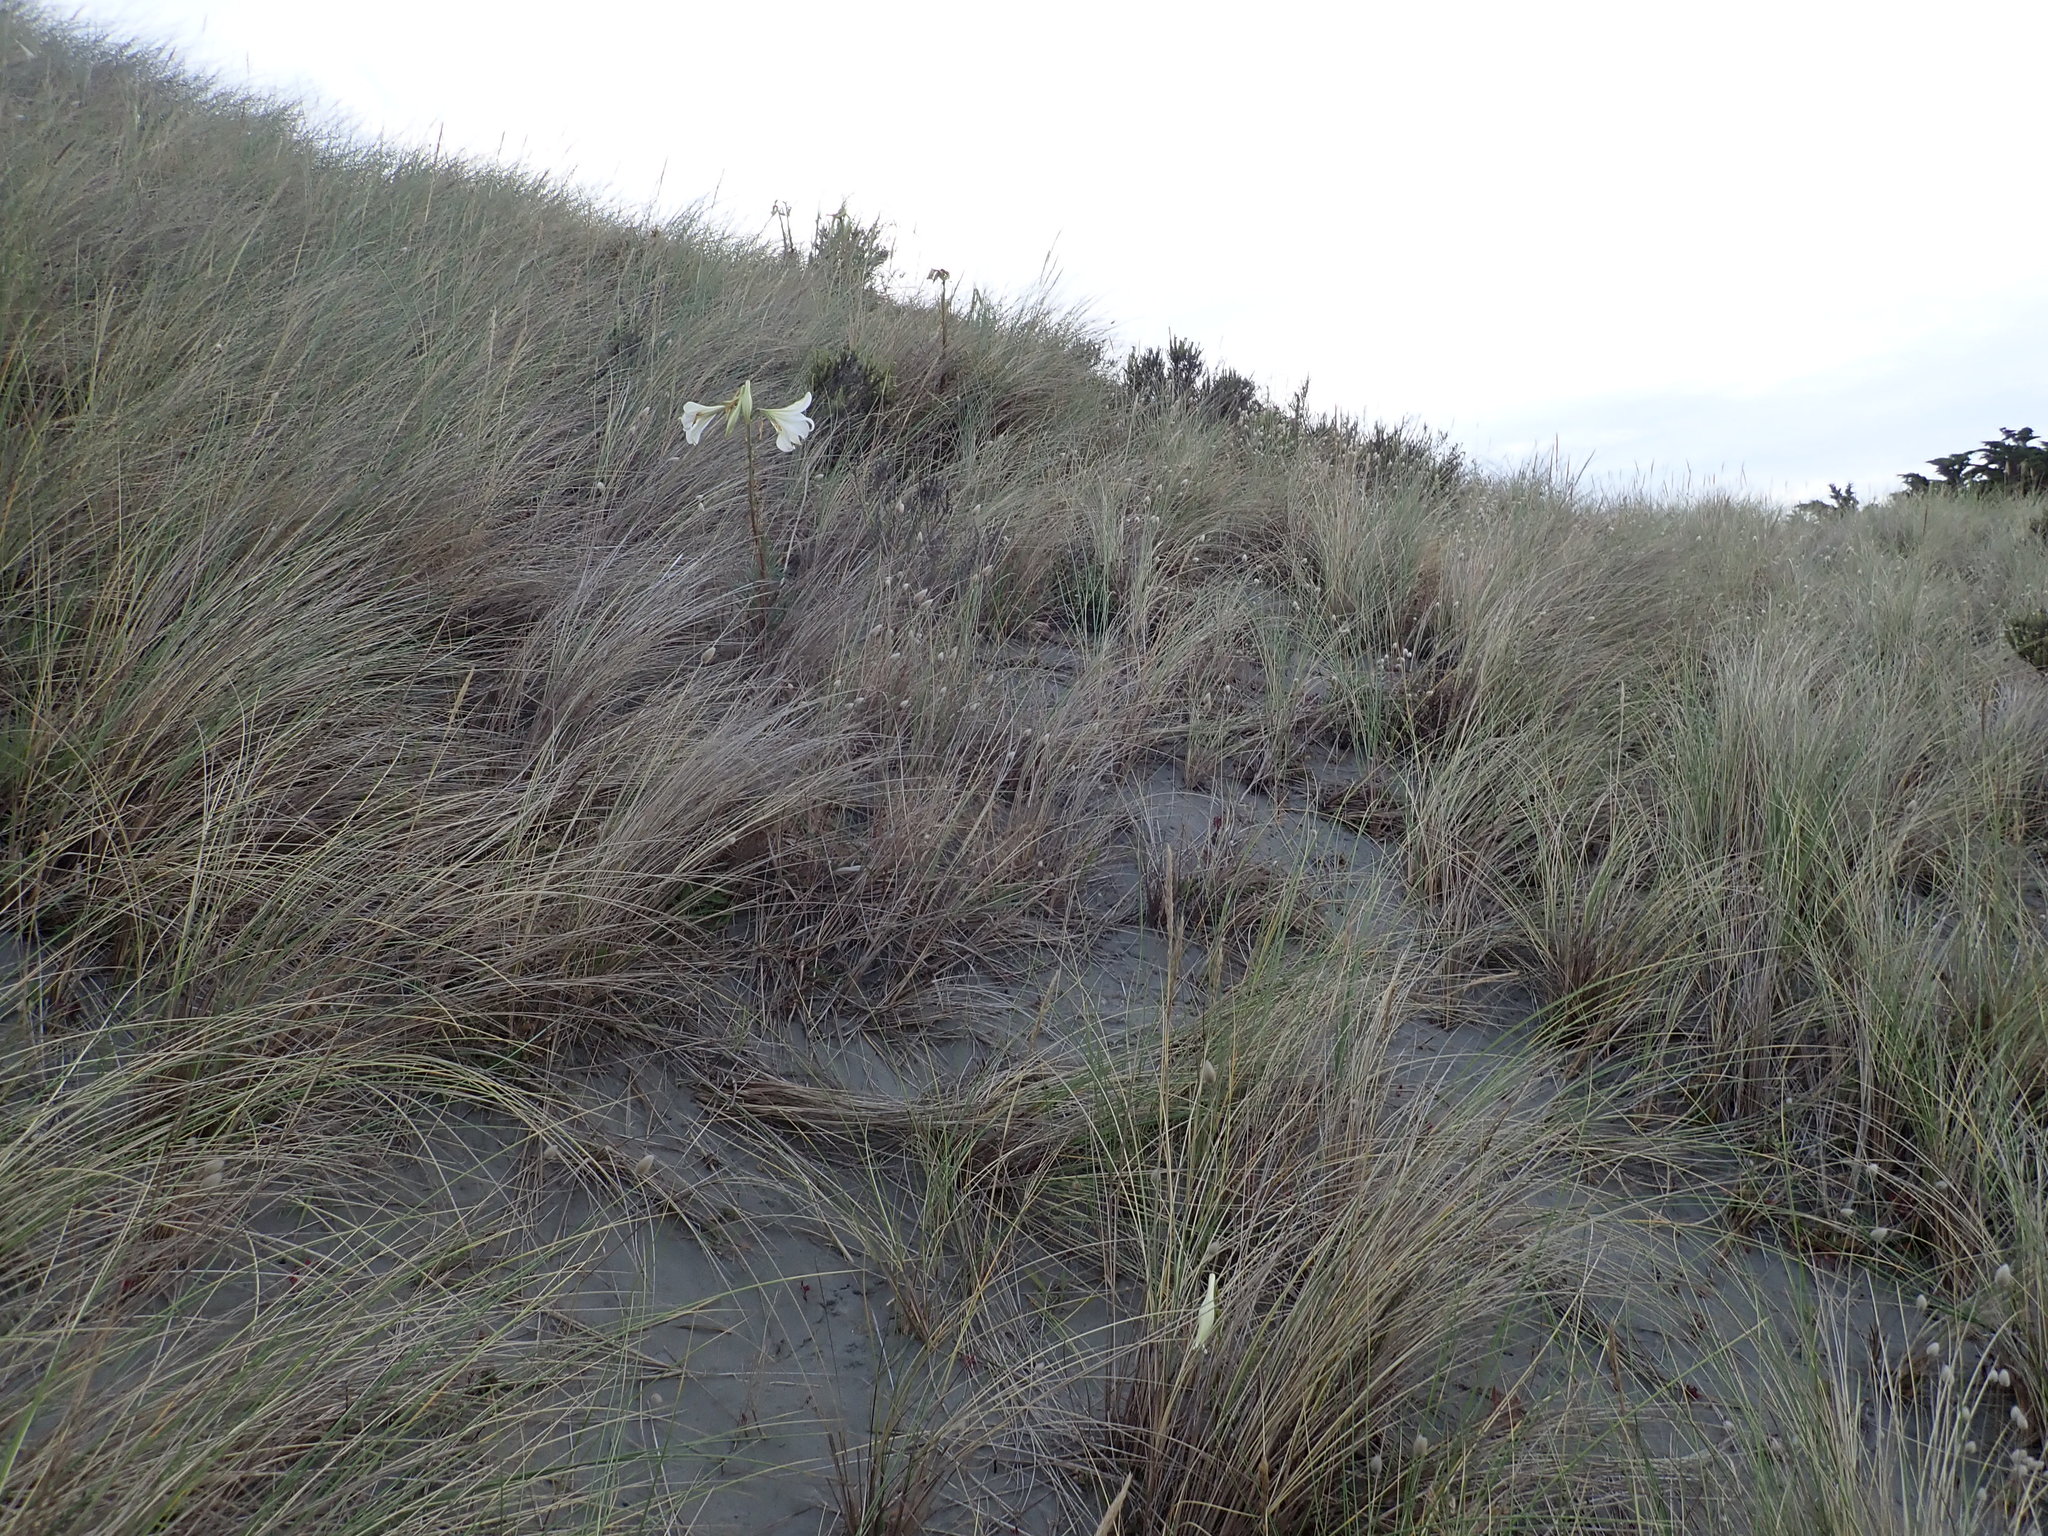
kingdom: Plantae
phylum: Tracheophyta
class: Liliopsida
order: Liliales
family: Liliaceae
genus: Lilium
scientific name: Lilium formosanum
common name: Formosa lily
